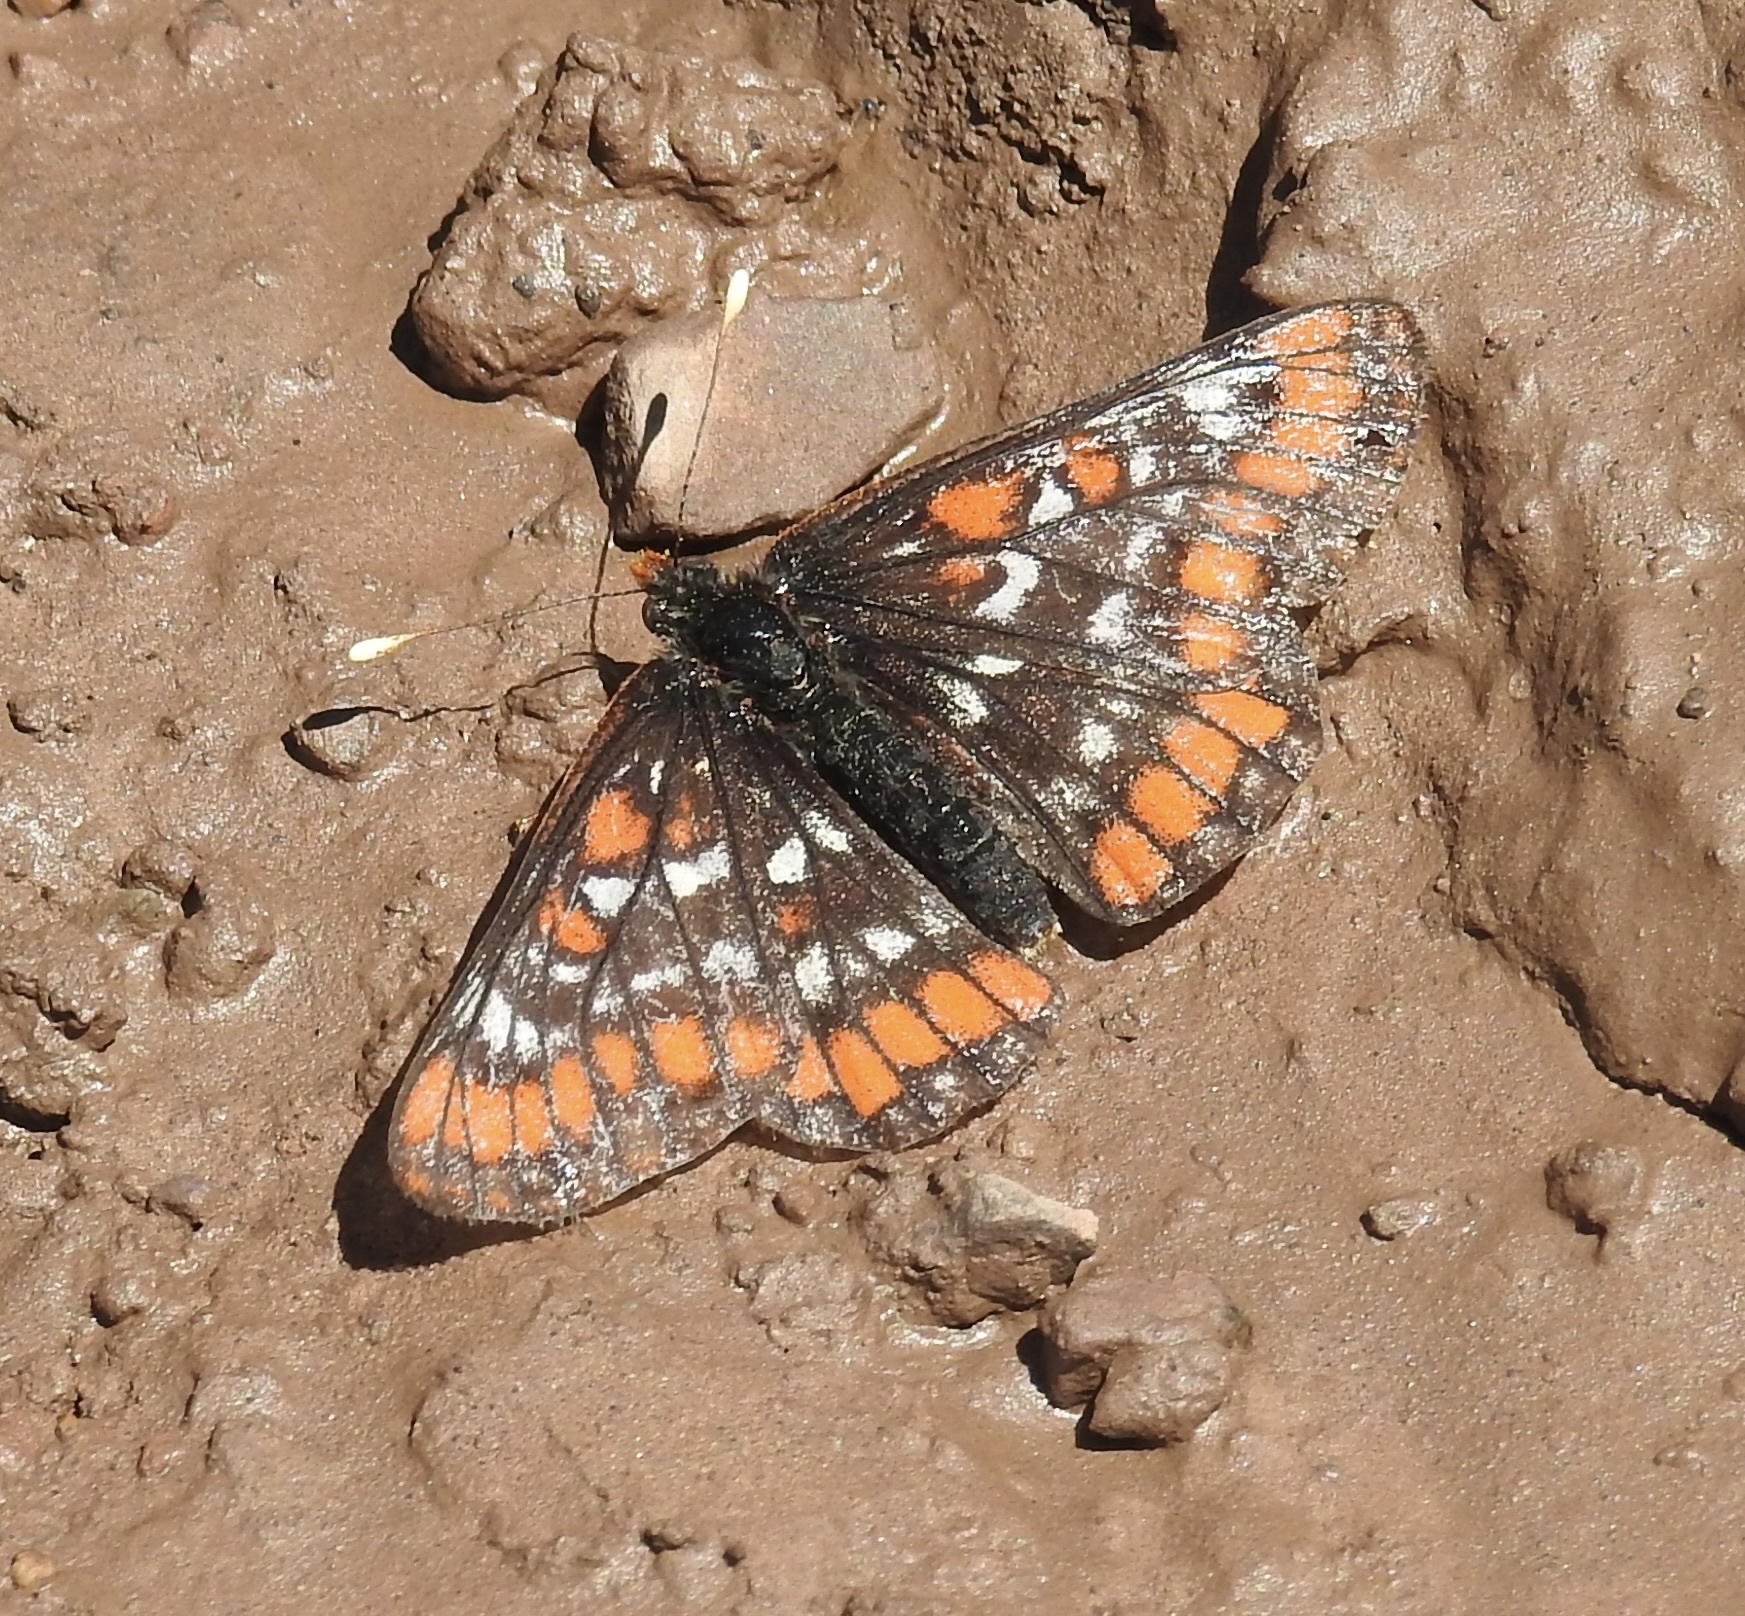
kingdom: Animalia
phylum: Arthropoda
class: Insecta
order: Lepidoptera
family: Nymphalidae
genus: Hypodryas
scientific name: Hypodryas gillettii
